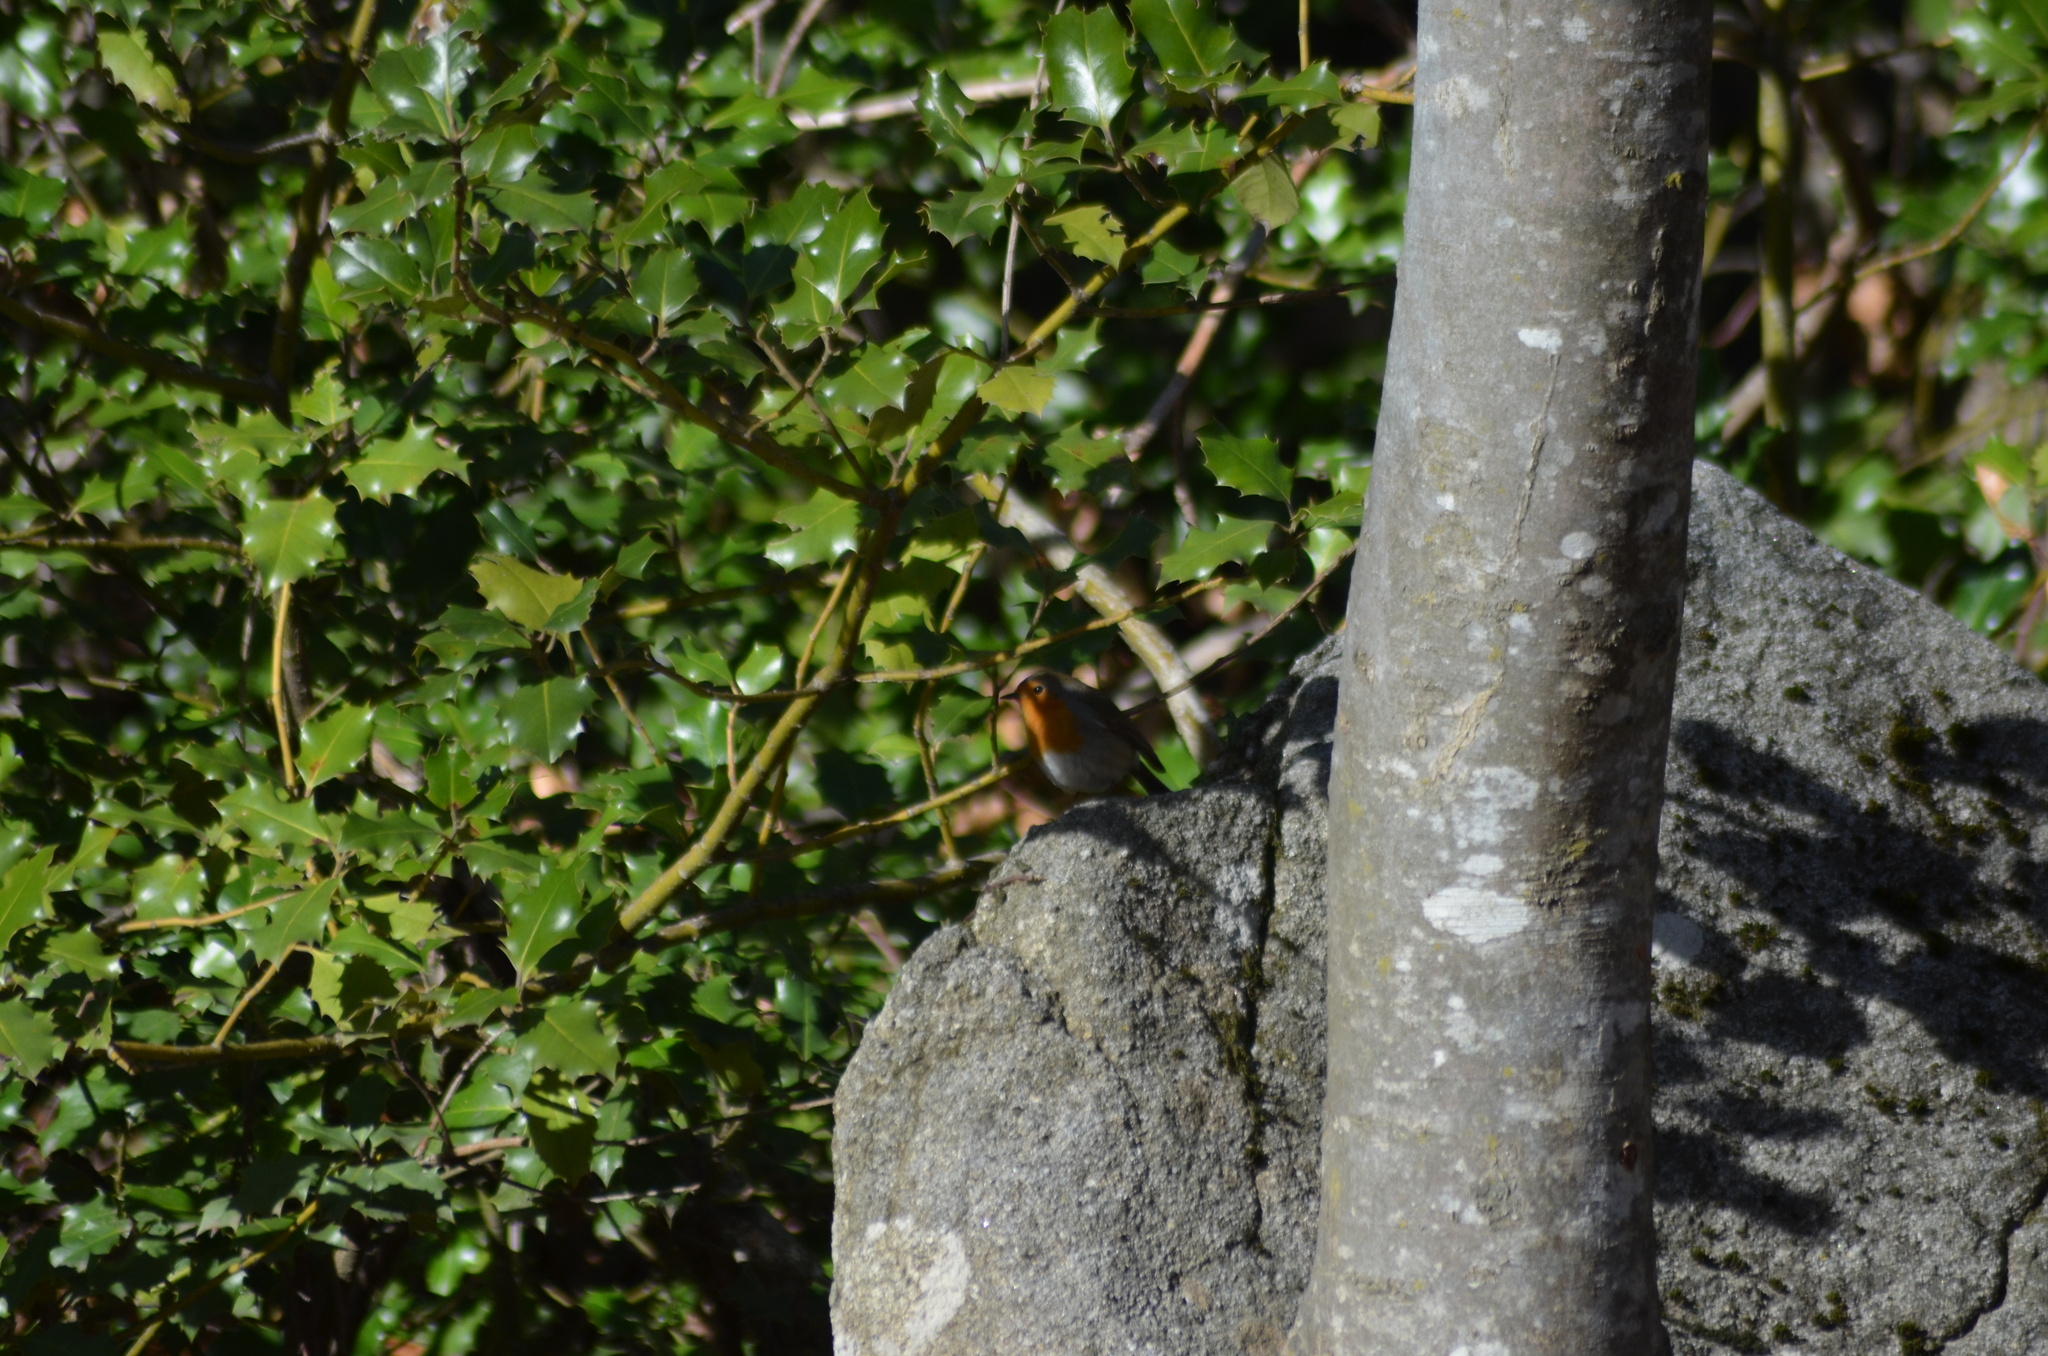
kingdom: Animalia
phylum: Chordata
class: Aves
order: Passeriformes
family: Muscicapidae
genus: Erithacus
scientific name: Erithacus rubecula
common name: European robin
